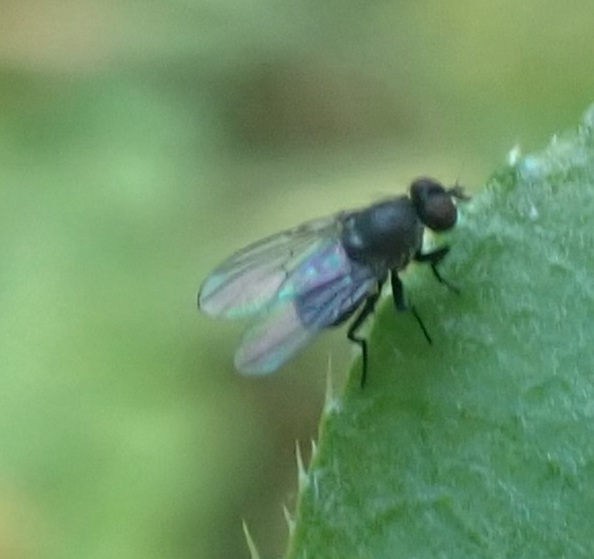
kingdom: Animalia
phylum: Arthropoda
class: Insecta
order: Diptera
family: Muscidae
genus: Coenosia
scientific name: Coenosia agromyzina
